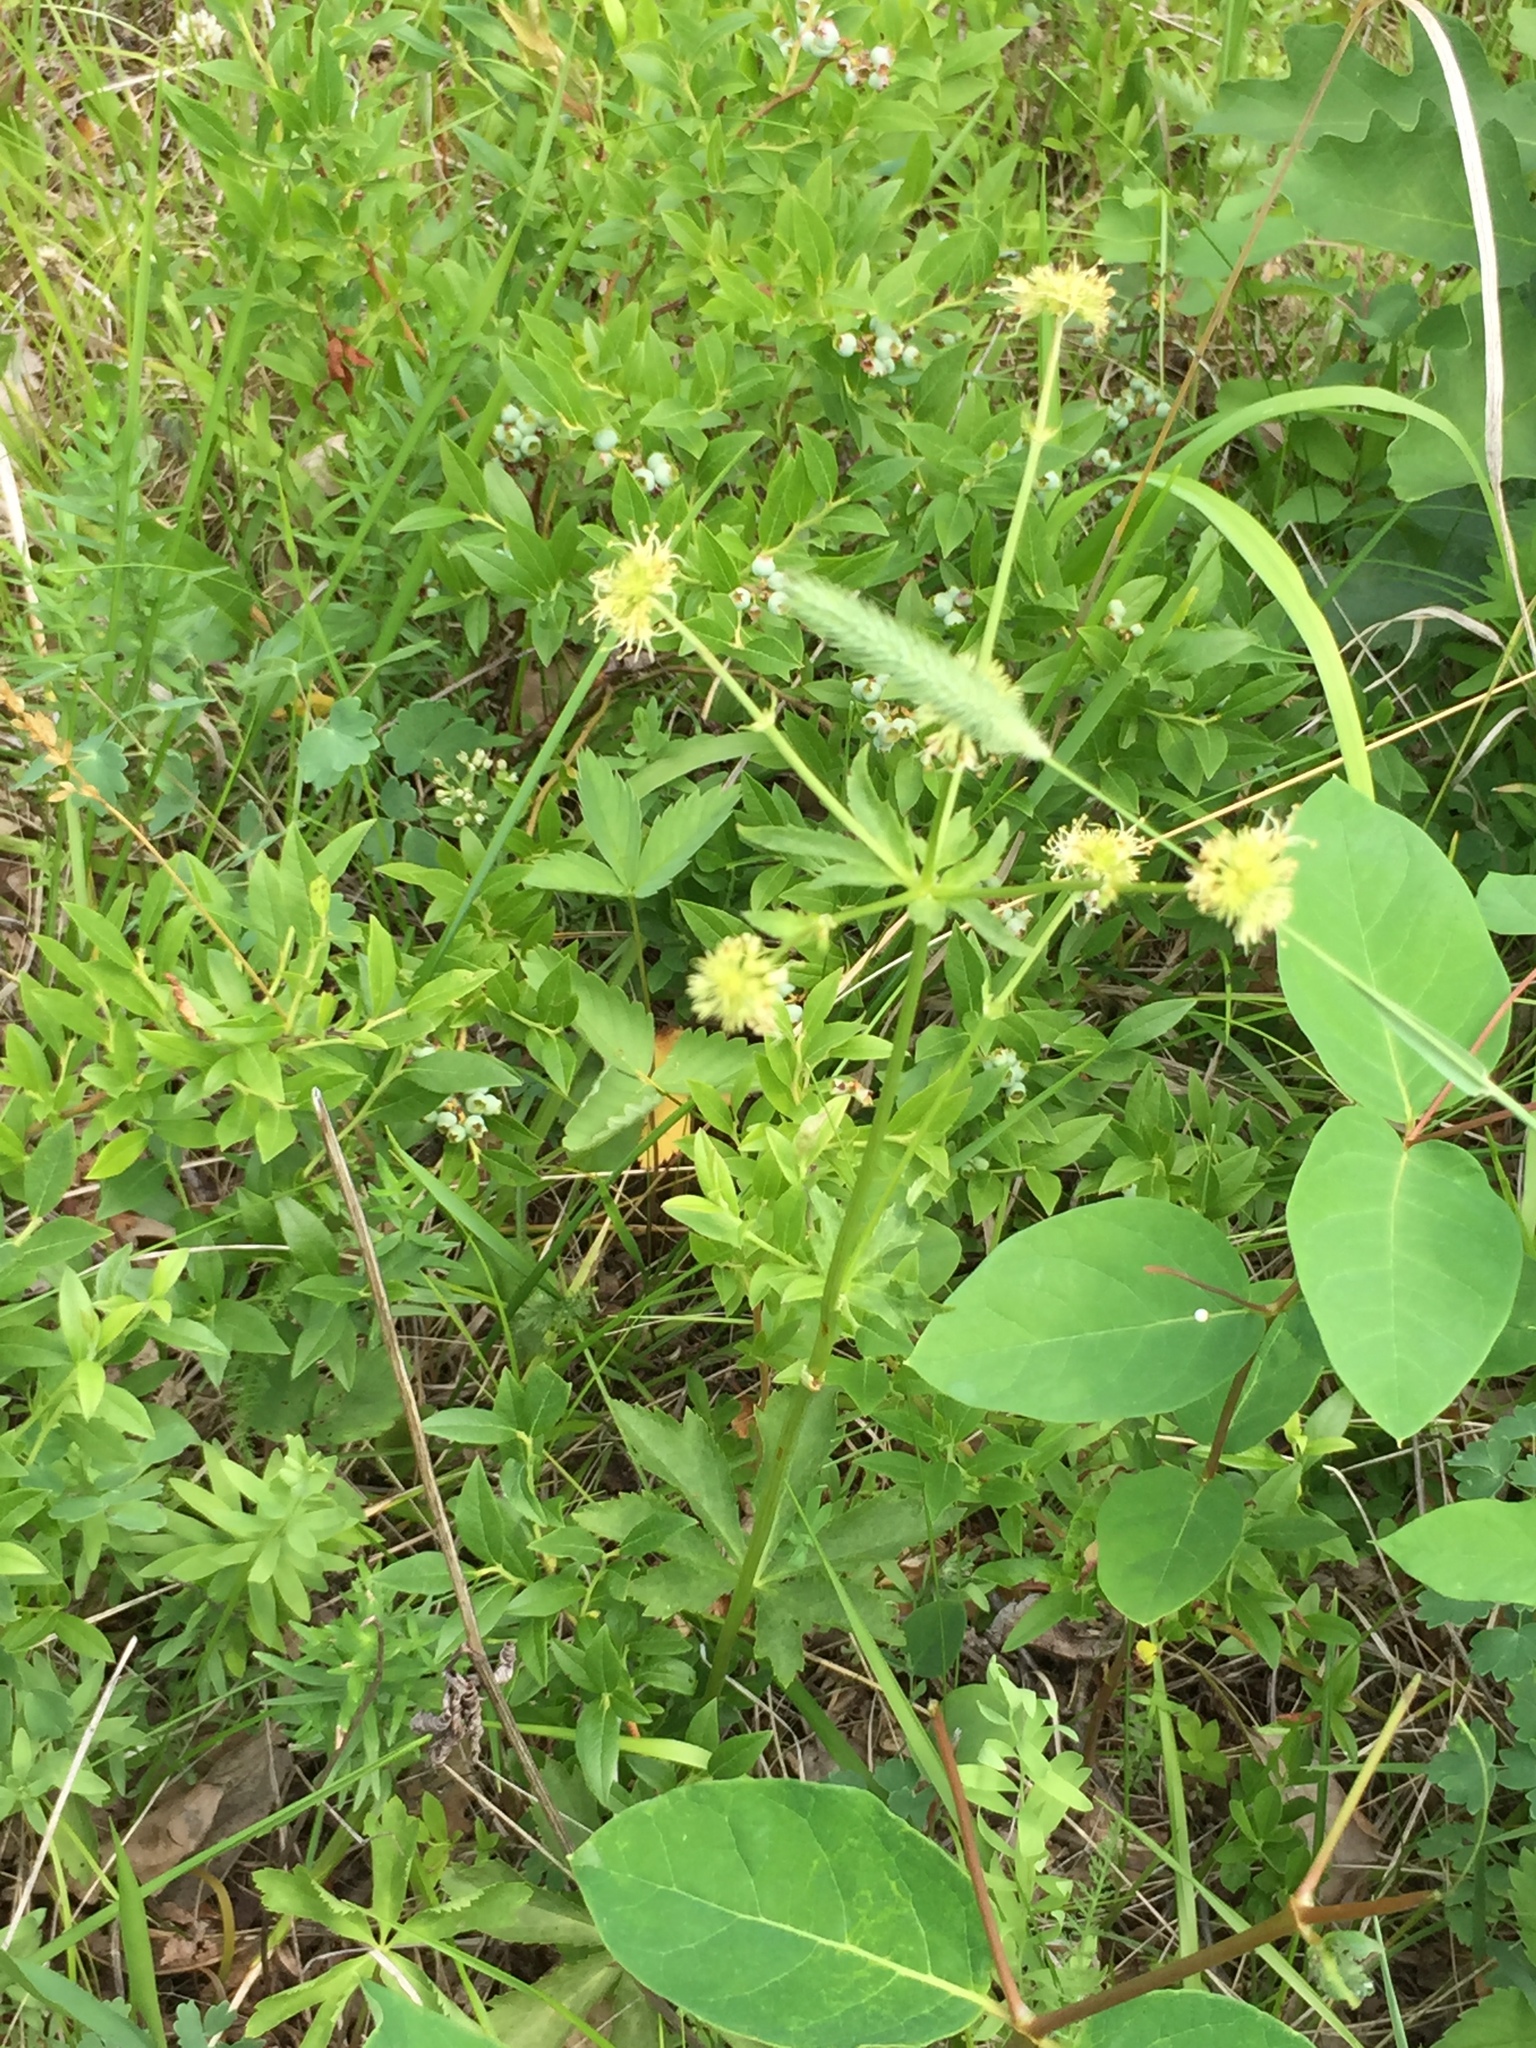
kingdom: Plantae
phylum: Tracheophyta
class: Magnoliopsida
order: Apiales
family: Apiaceae
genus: Sanicula
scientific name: Sanicula marilandica
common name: Black snakeroot
